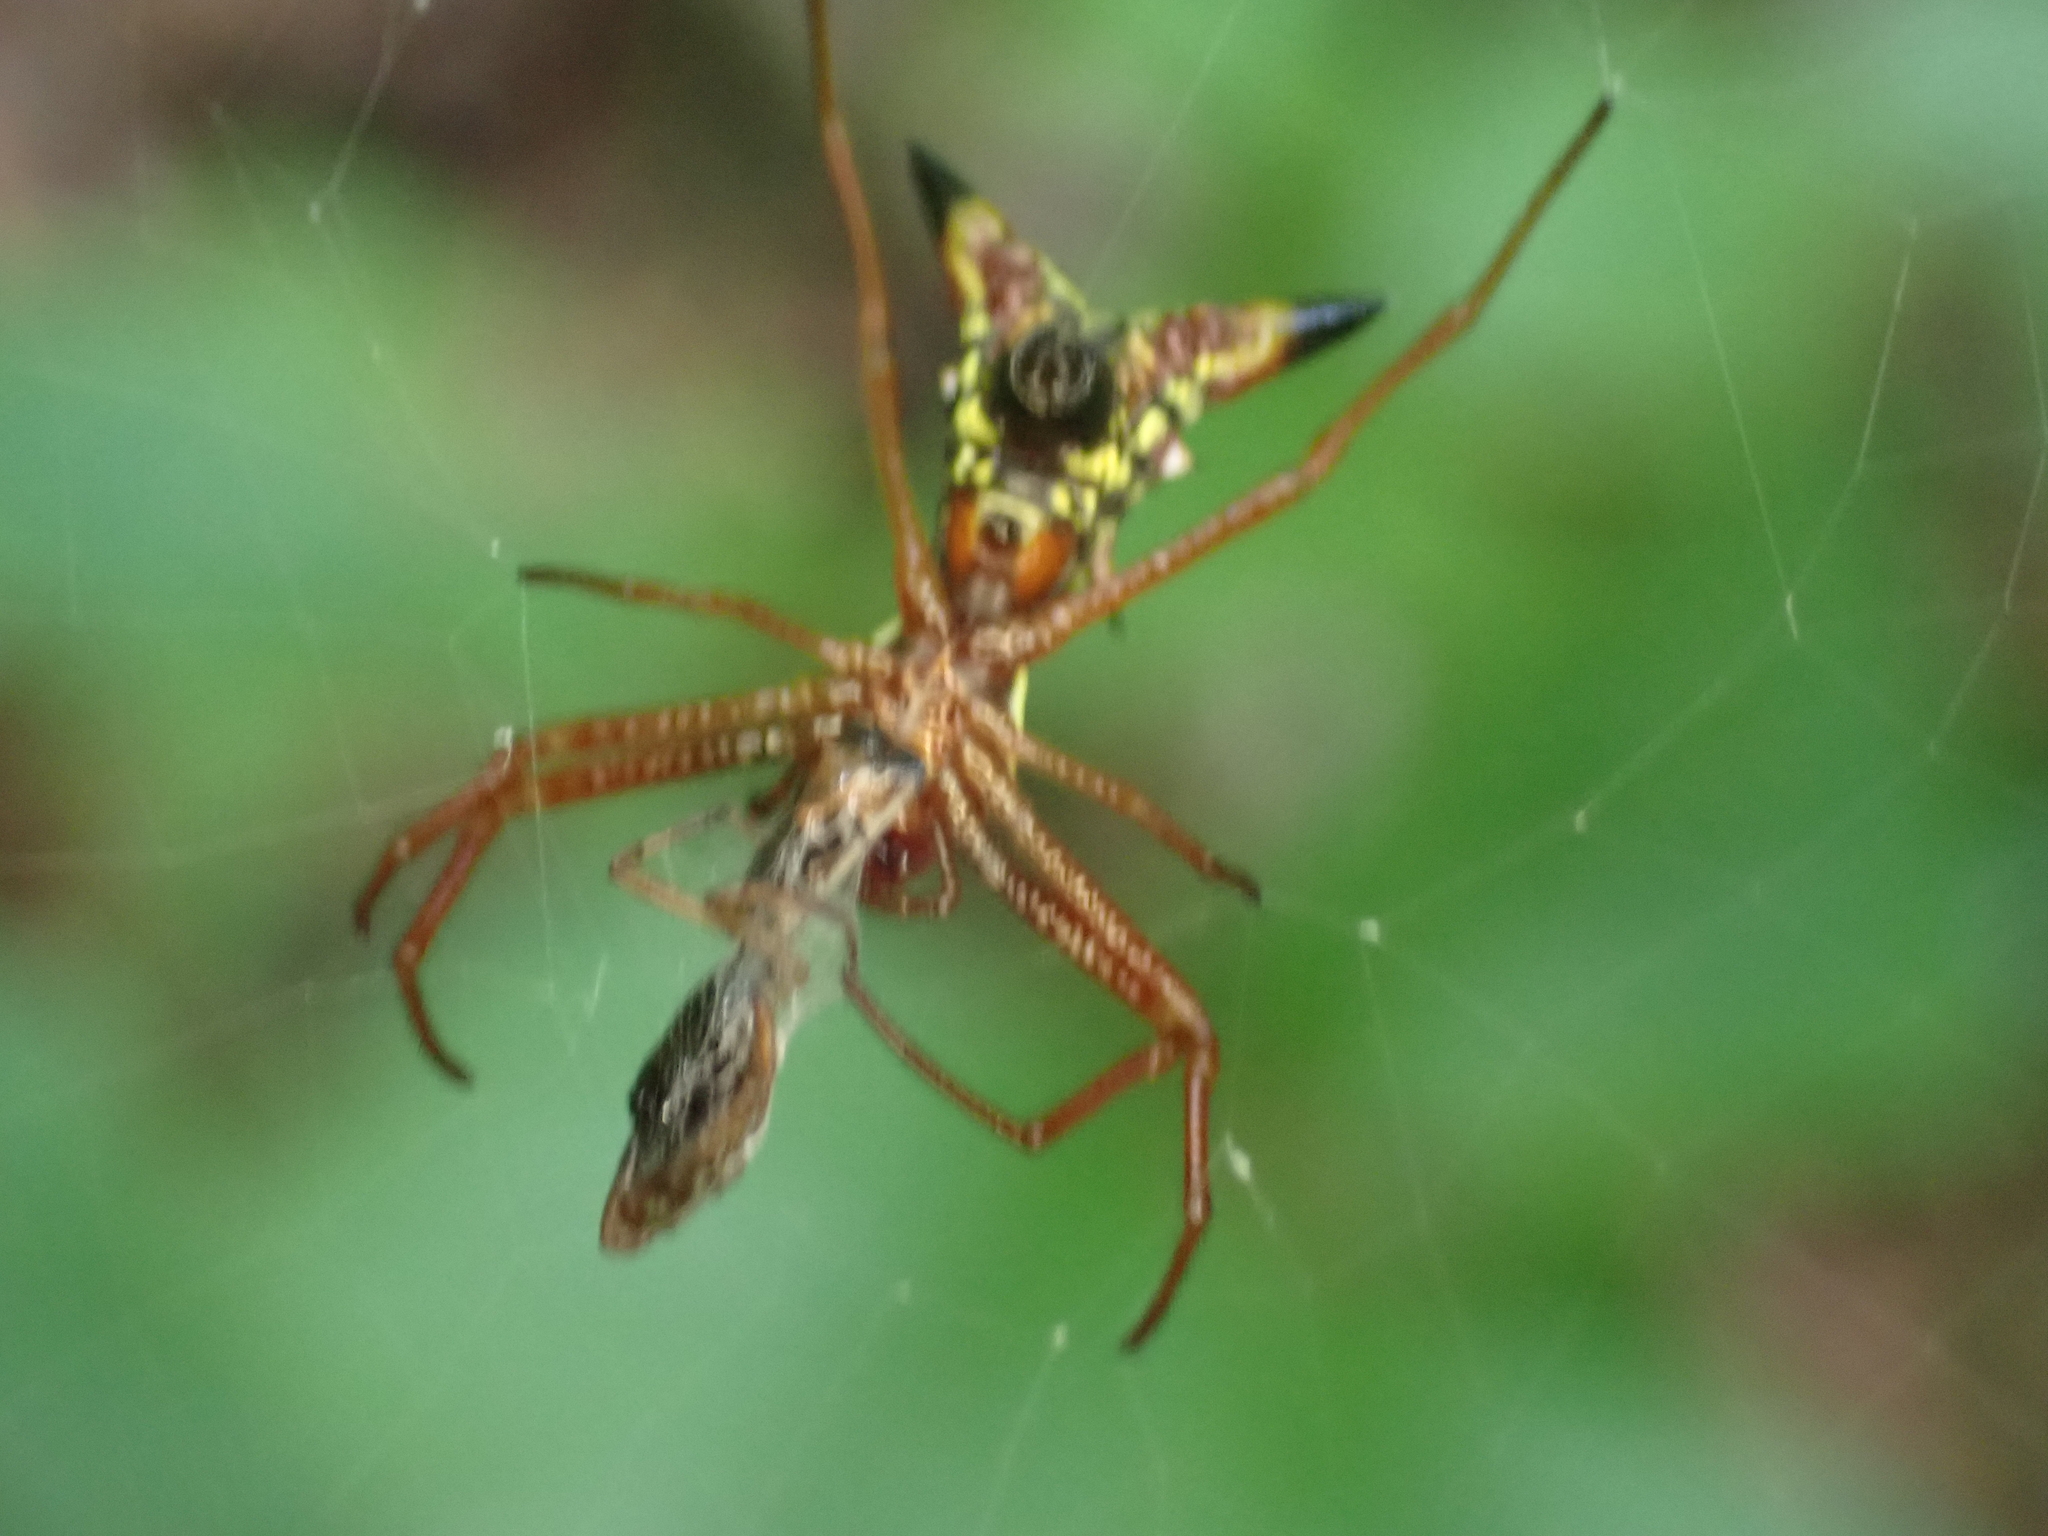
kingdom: Animalia
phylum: Arthropoda
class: Arachnida
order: Araneae
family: Araneidae
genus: Micrathena
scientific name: Micrathena sagittata
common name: Orb weavers
